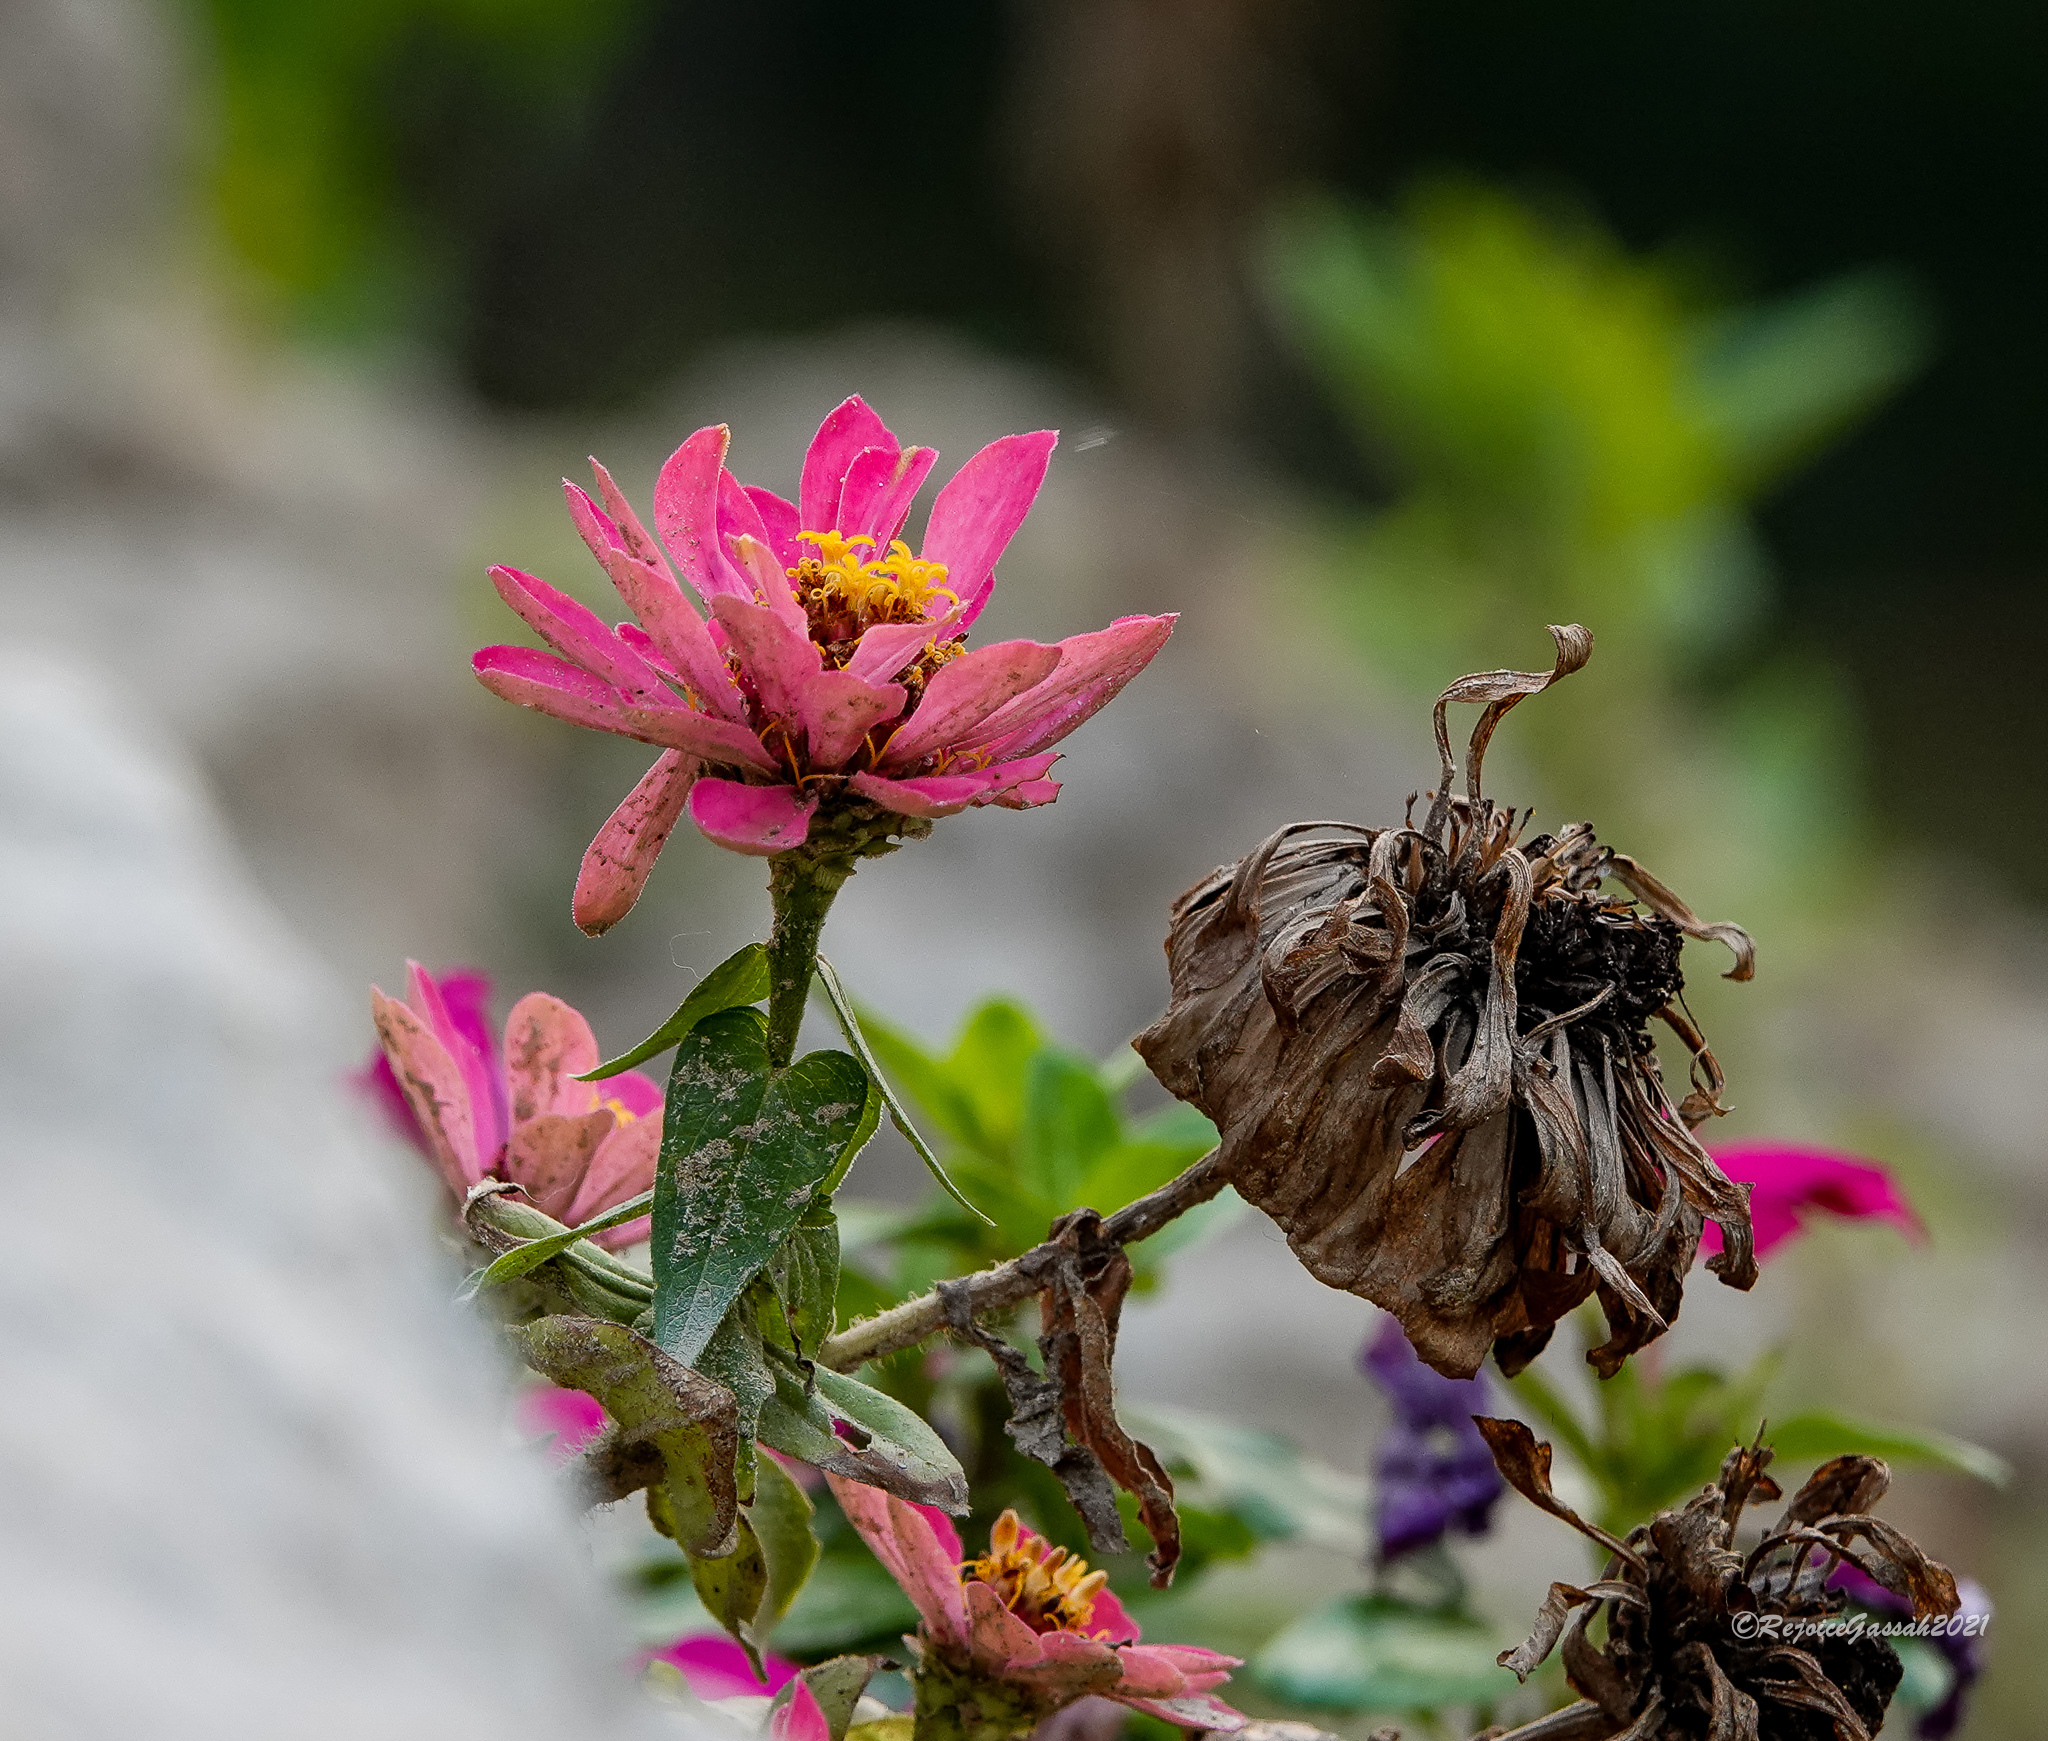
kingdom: Plantae
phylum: Tracheophyta
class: Magnoliopsida
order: Asterales
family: Asteraceae
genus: Zinnia
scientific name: Zinnia elegans
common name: Youth-and-age
